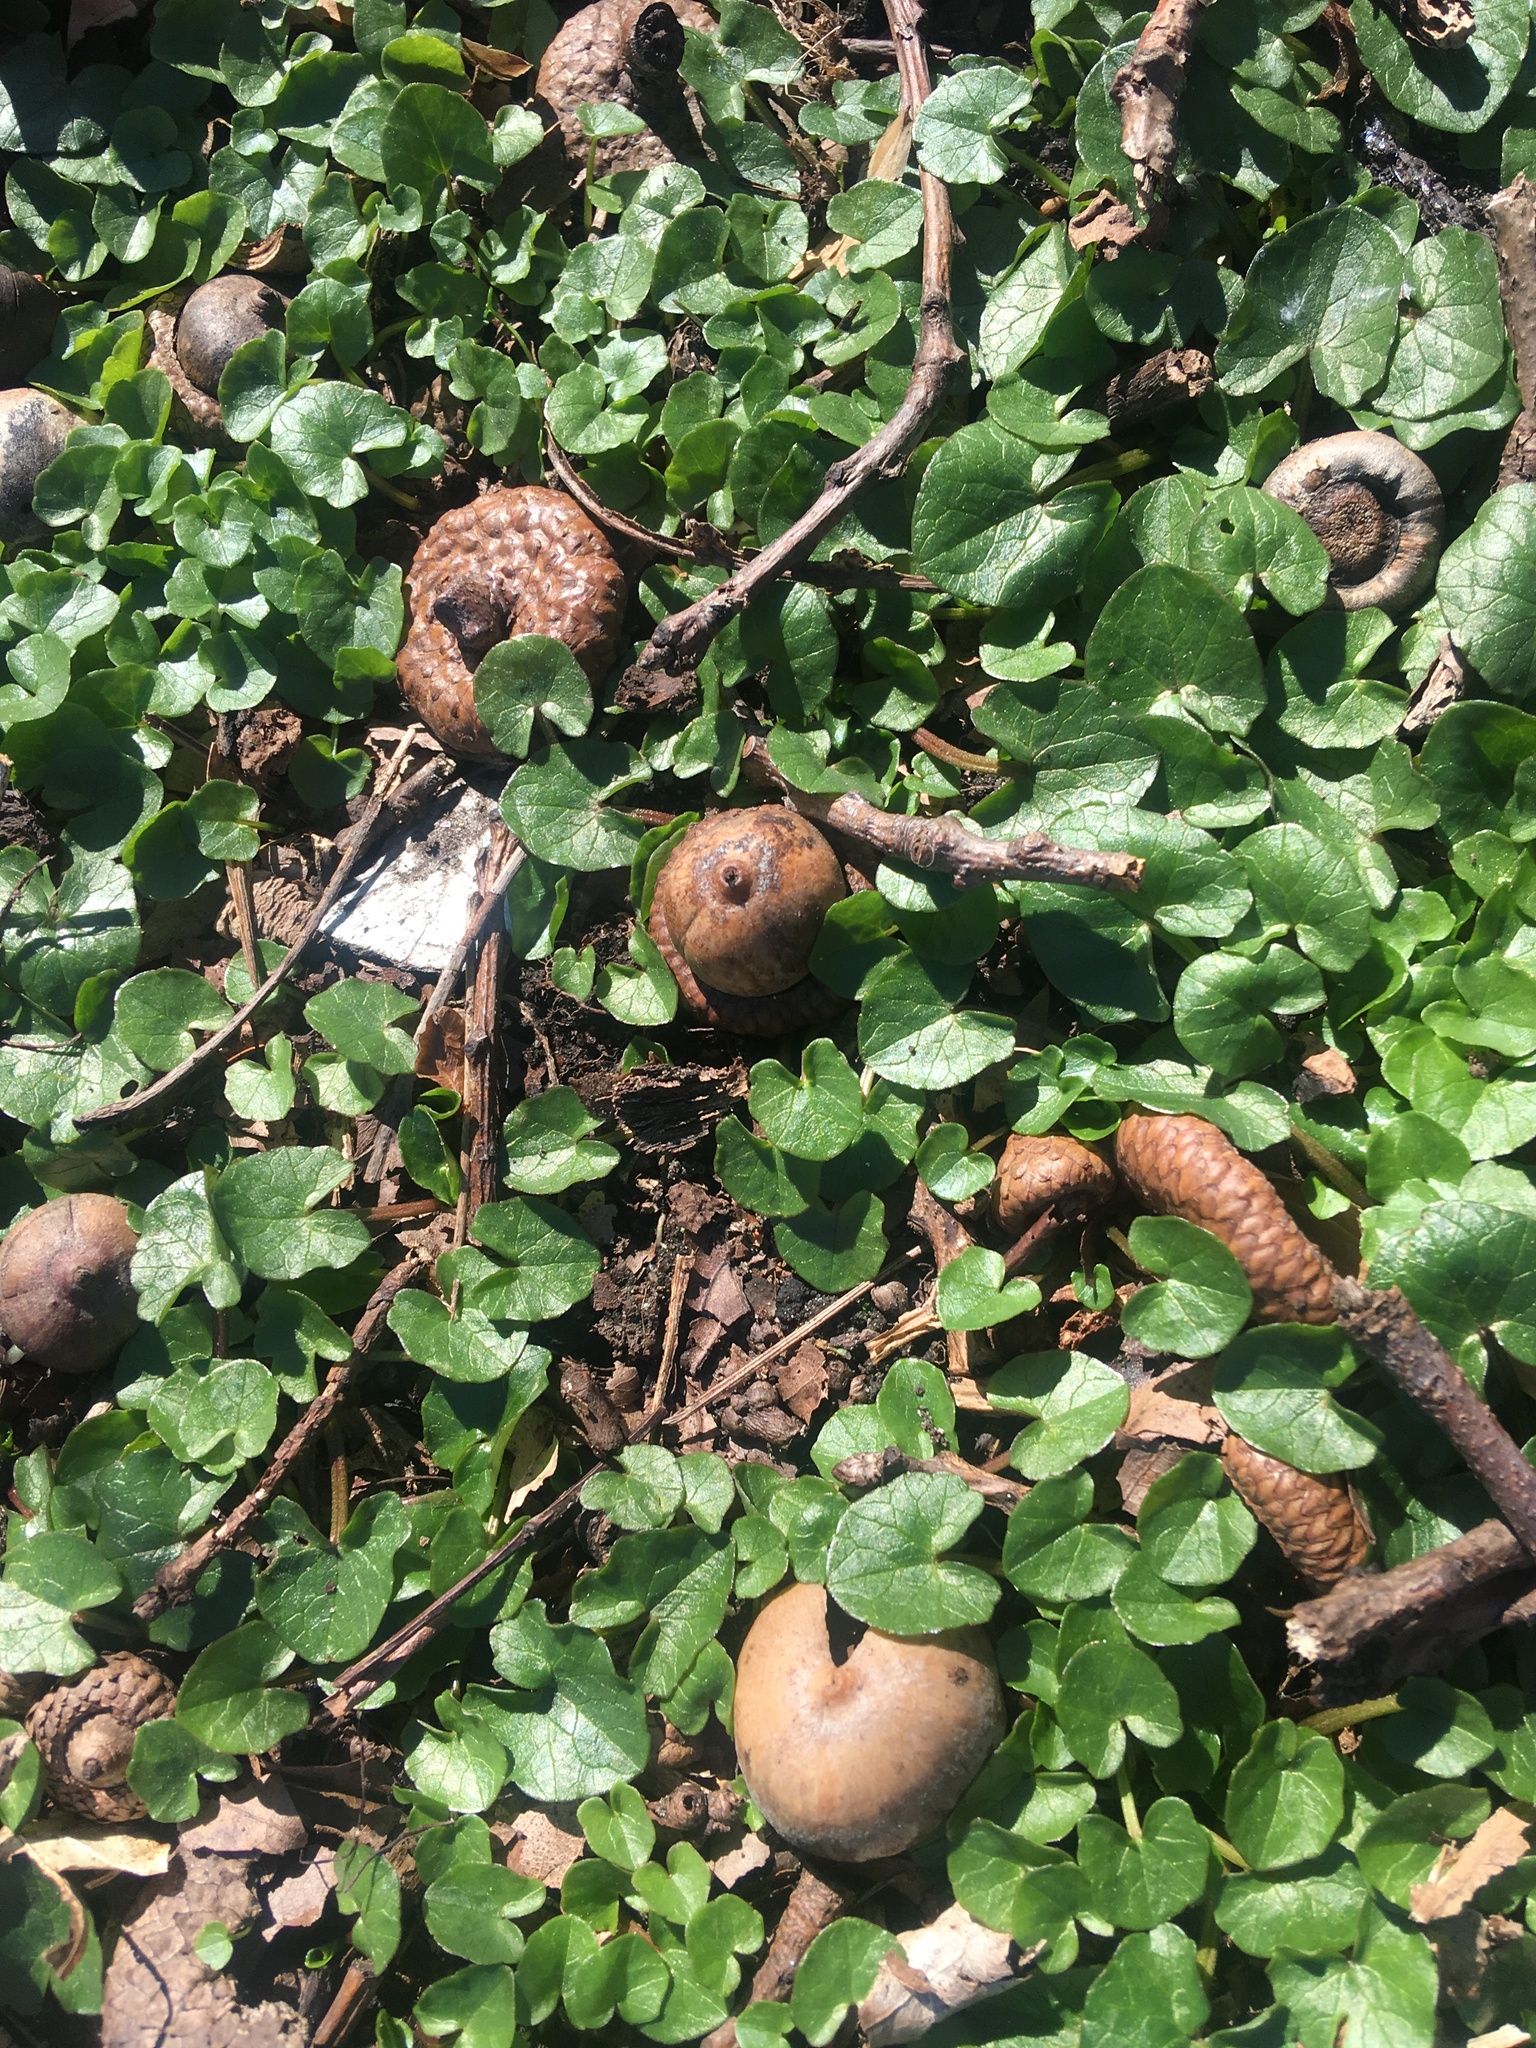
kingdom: Plantae
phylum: Tracheophyta
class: Magnoliopsida
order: Ranunculales
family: Ranunculaceae
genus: Ficaria
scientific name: Ficaria verna
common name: Lesser celandine
